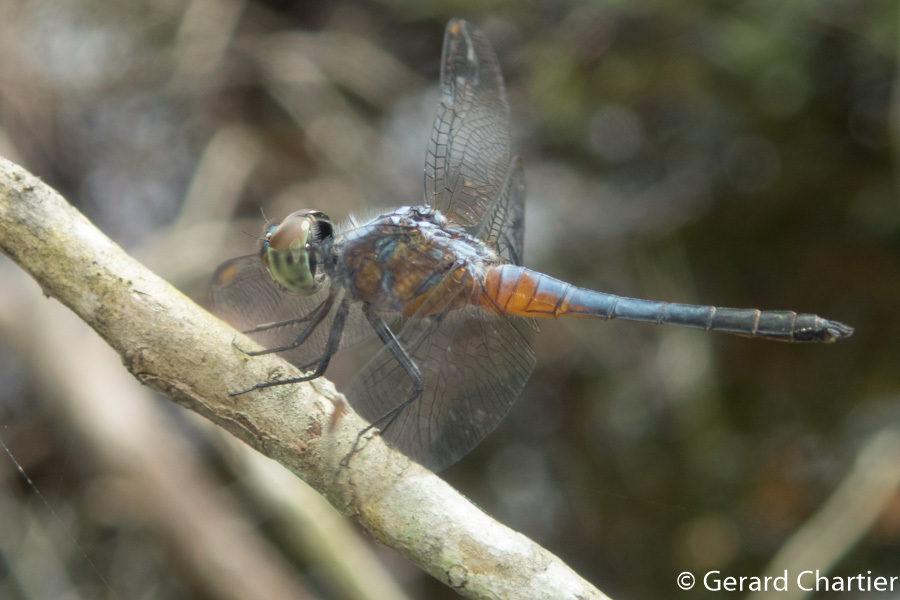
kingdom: Animalia
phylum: Arthropoda
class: Insecta
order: Odonata
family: Libellulidae
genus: Brachydiplax
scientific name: Brachydiplax chalybea
